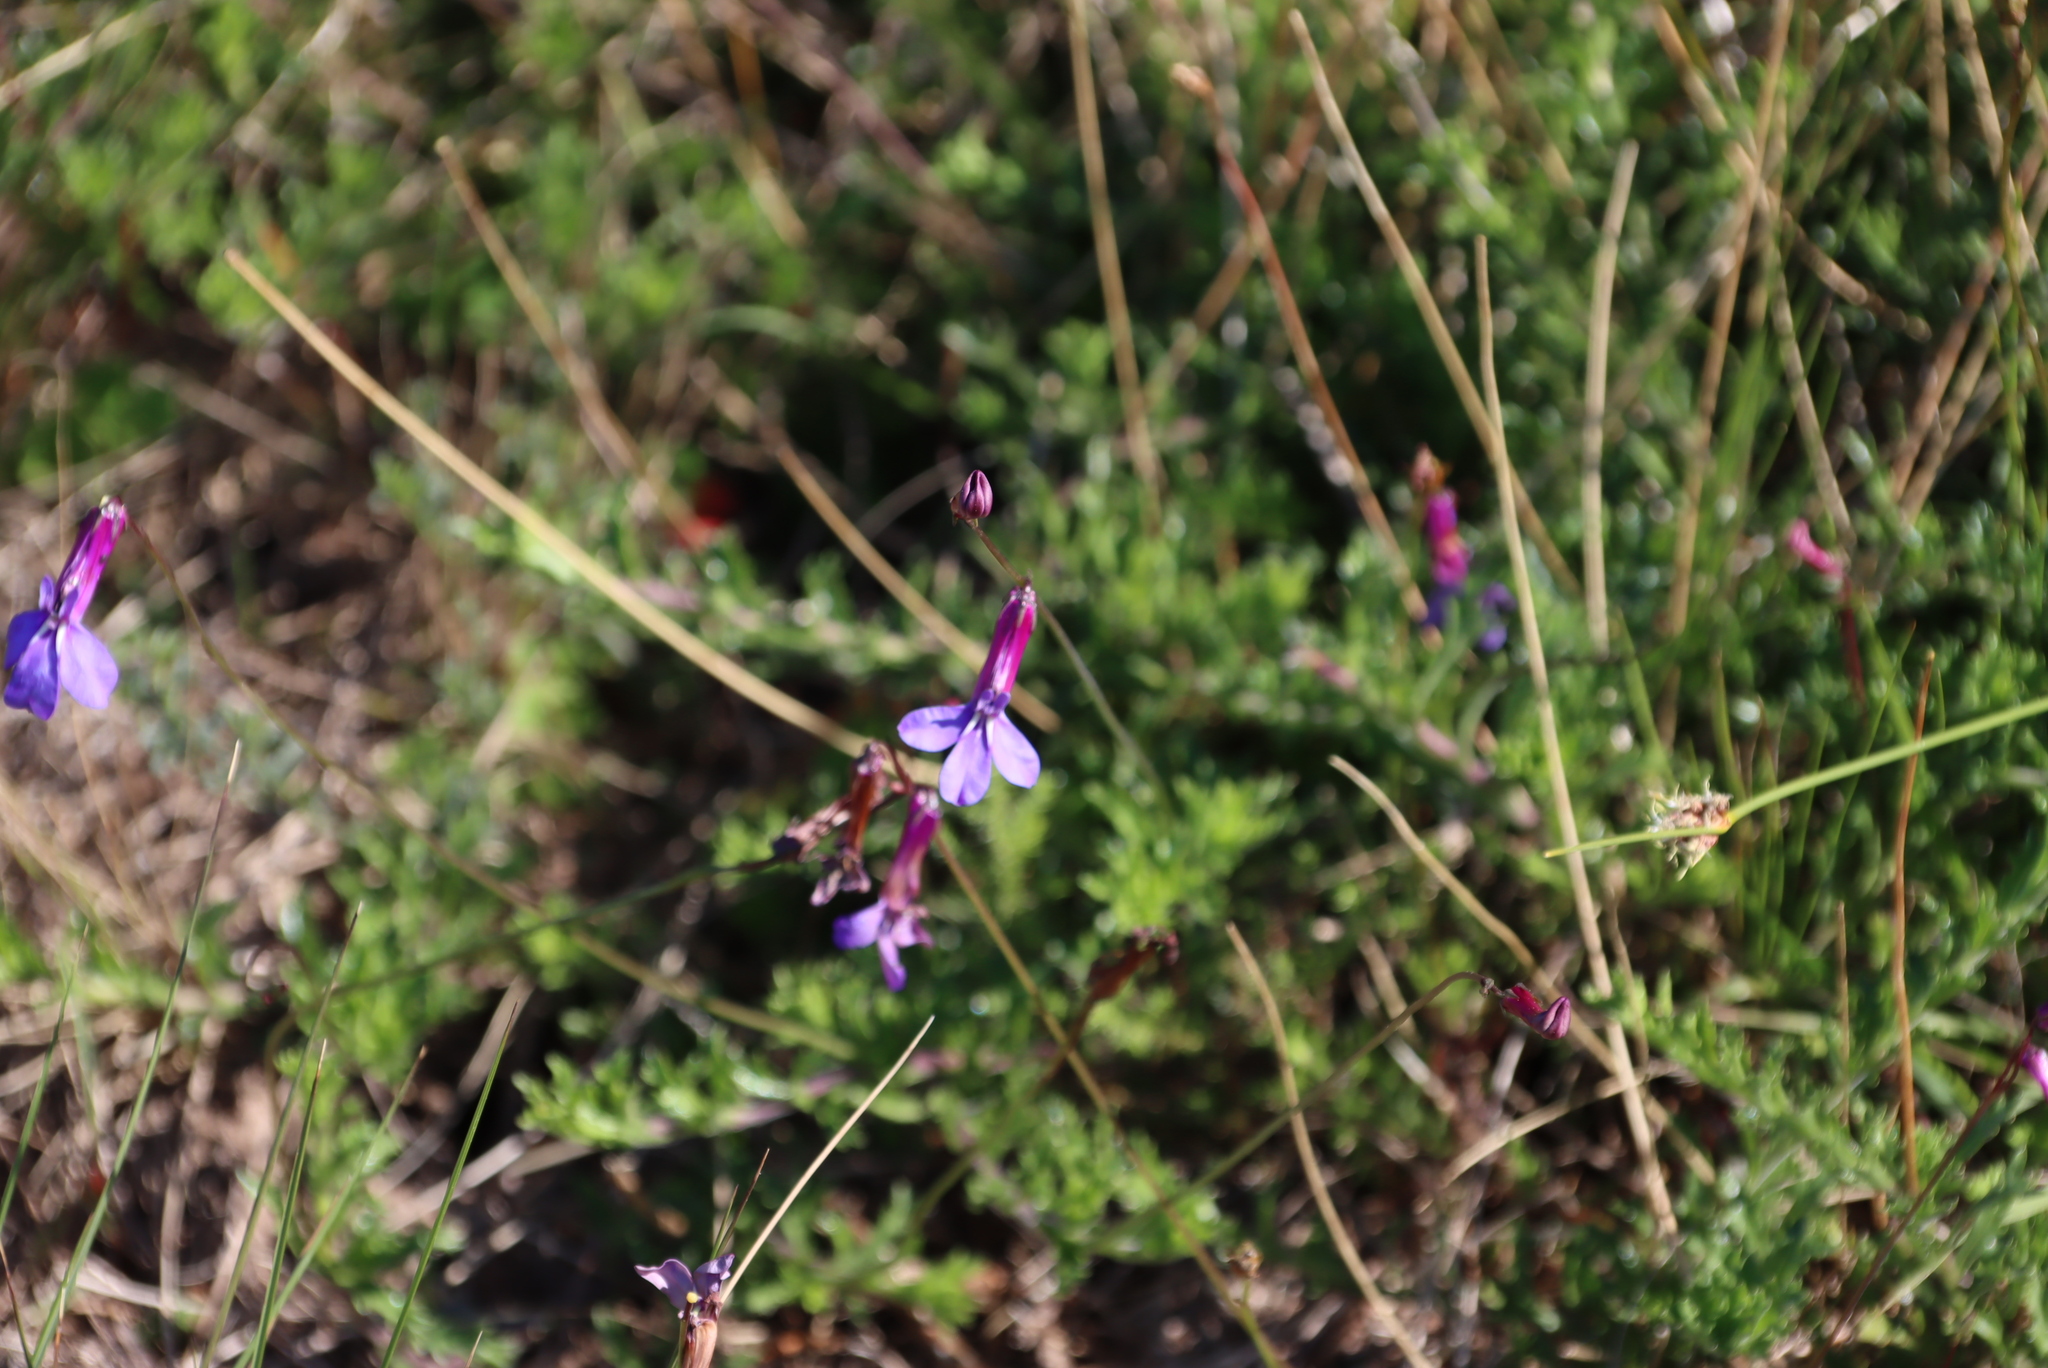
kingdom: Plantae
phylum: Tracheophyta
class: Magnoliopsida
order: Asterales
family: Campanulaceae
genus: Lobelia
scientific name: Lobelia coronopifolia
